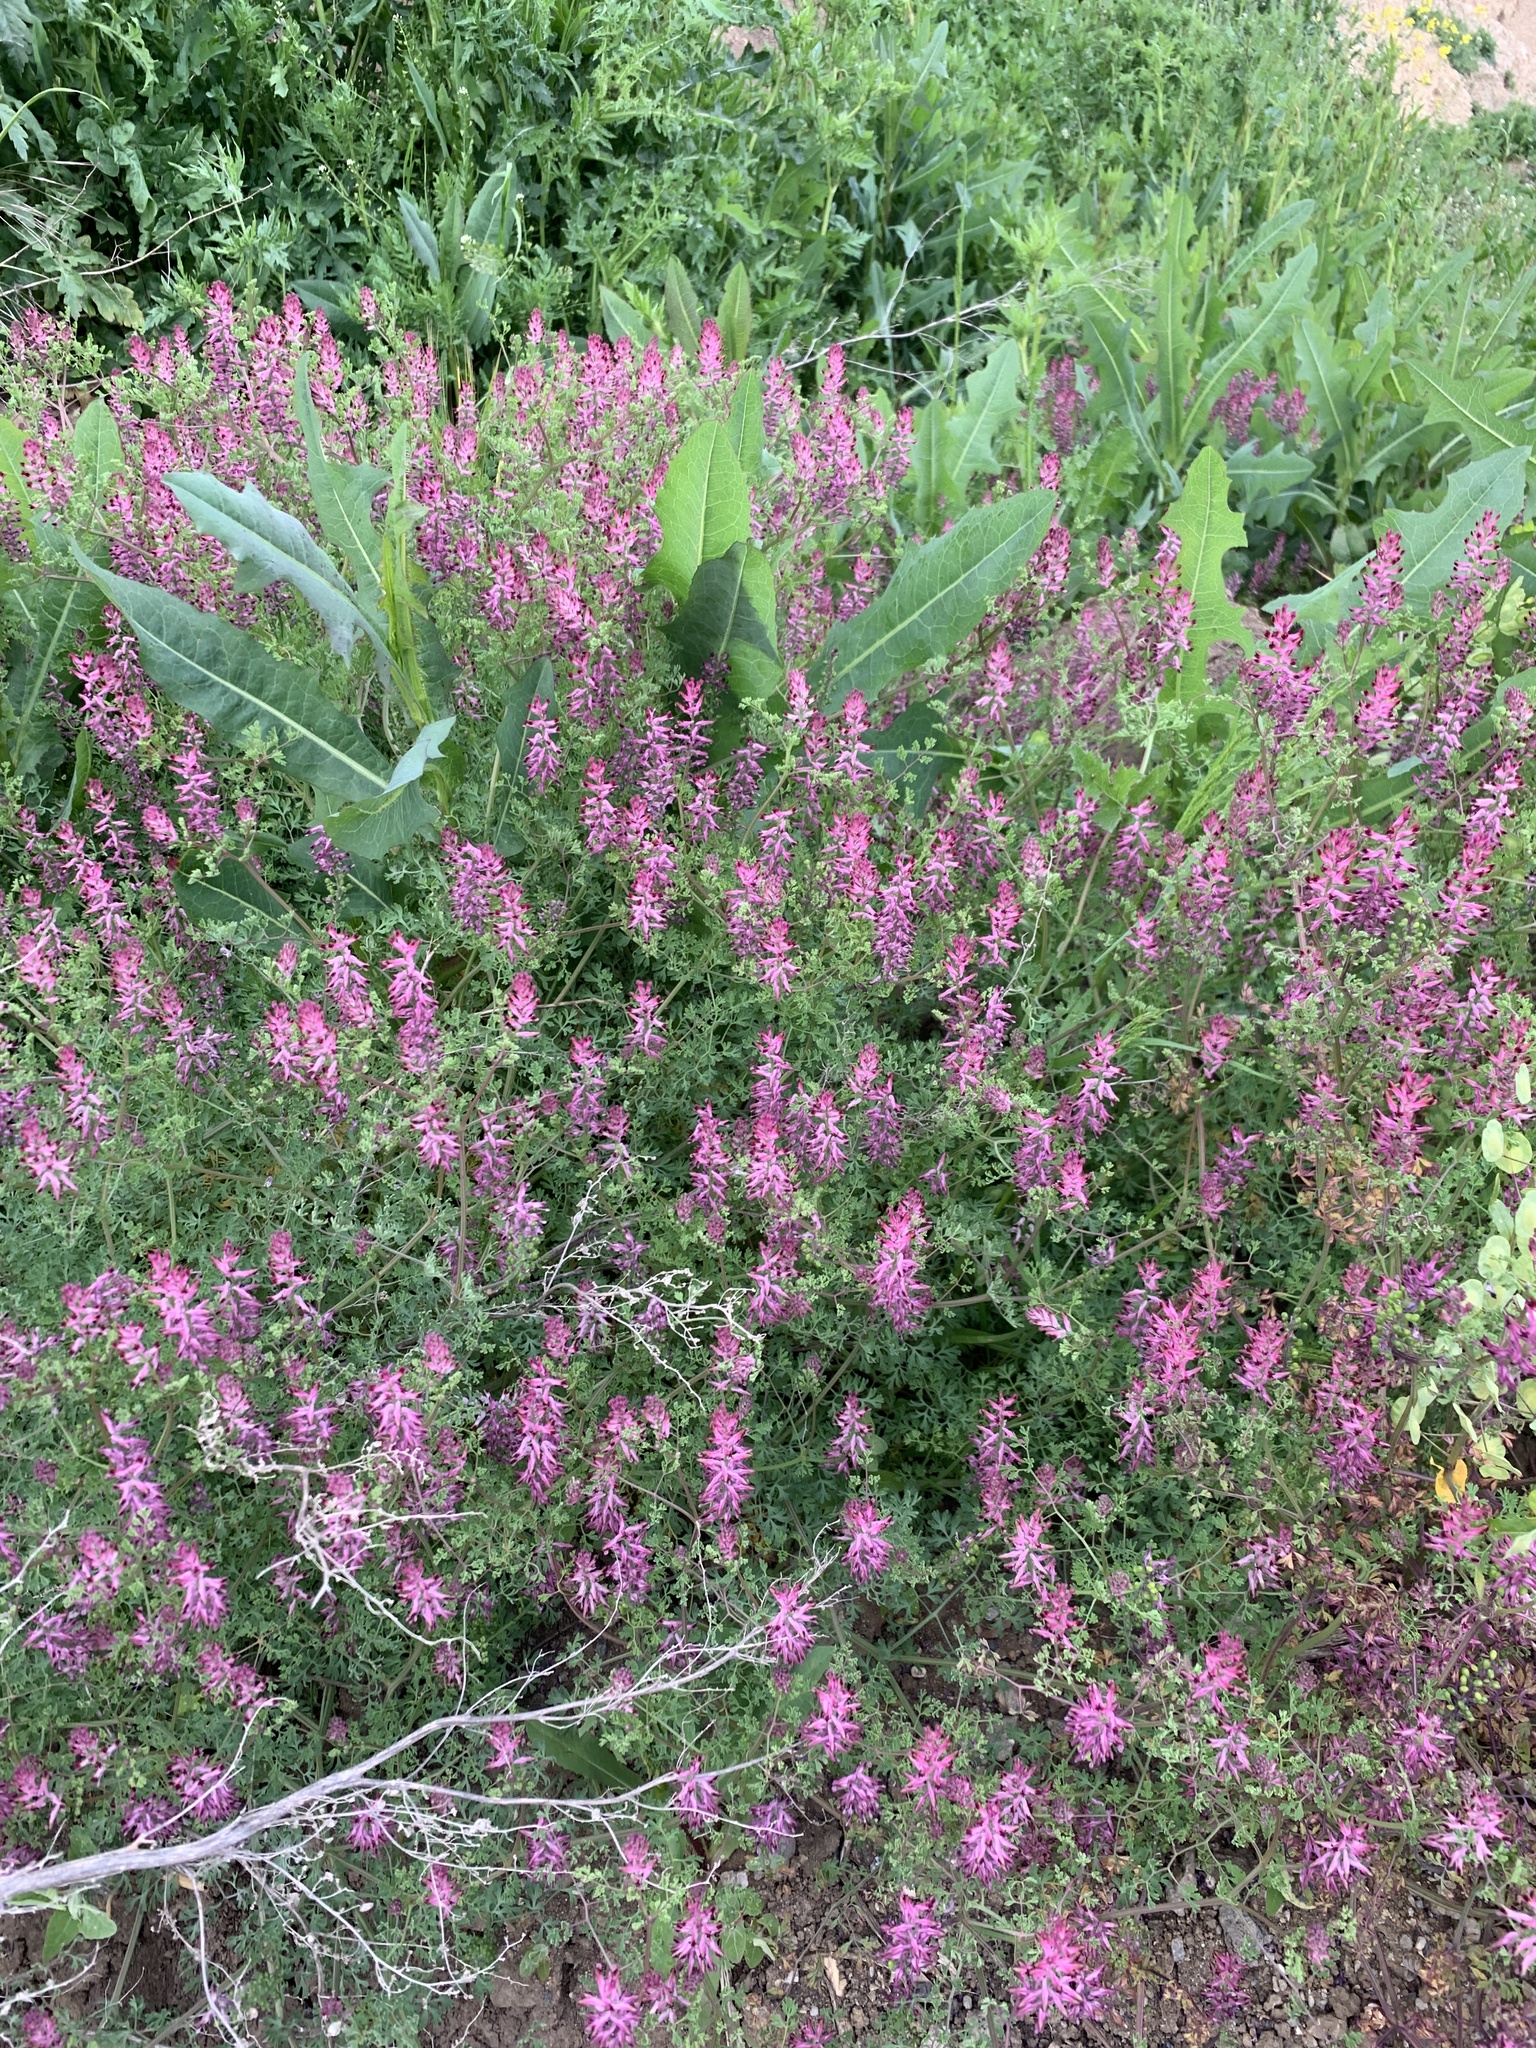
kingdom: Plantae
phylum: Tracheophyta
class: Magnoliopsida
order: Ranunculales
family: Papaveraceae
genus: Fumaria
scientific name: Fumaria officinalis
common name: Common fumitory
